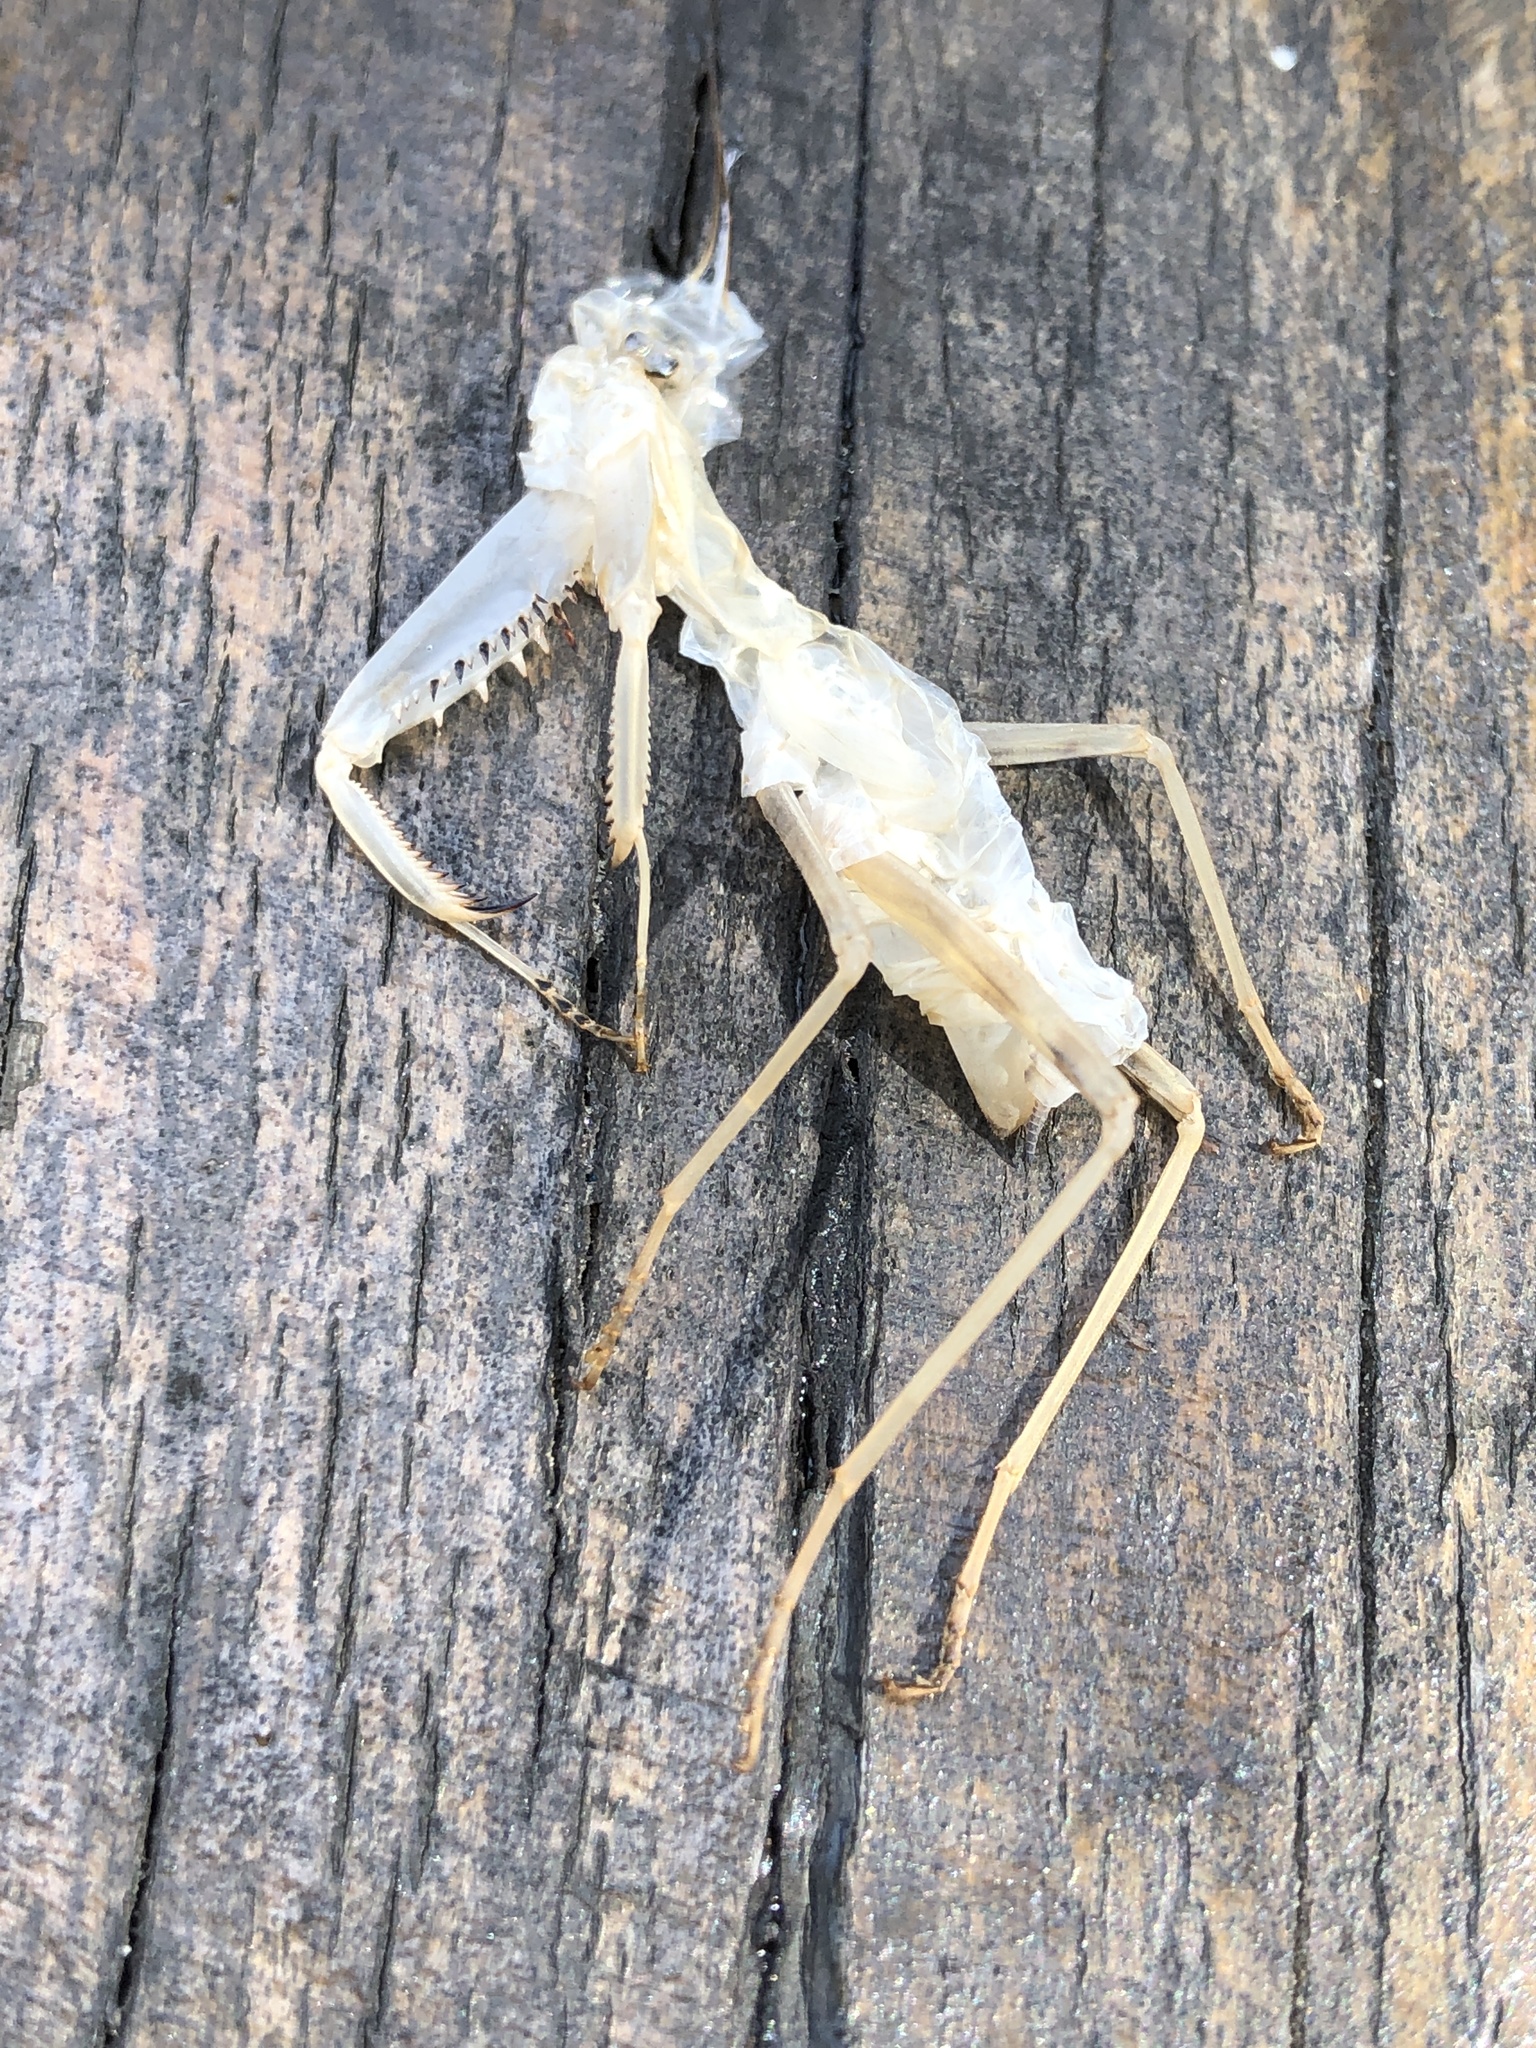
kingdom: Animalia
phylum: Arthropoda
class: Insecta
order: Mantodea
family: Mantidae
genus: Hierodula
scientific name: Hierodula patellifera
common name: Asian mantis
